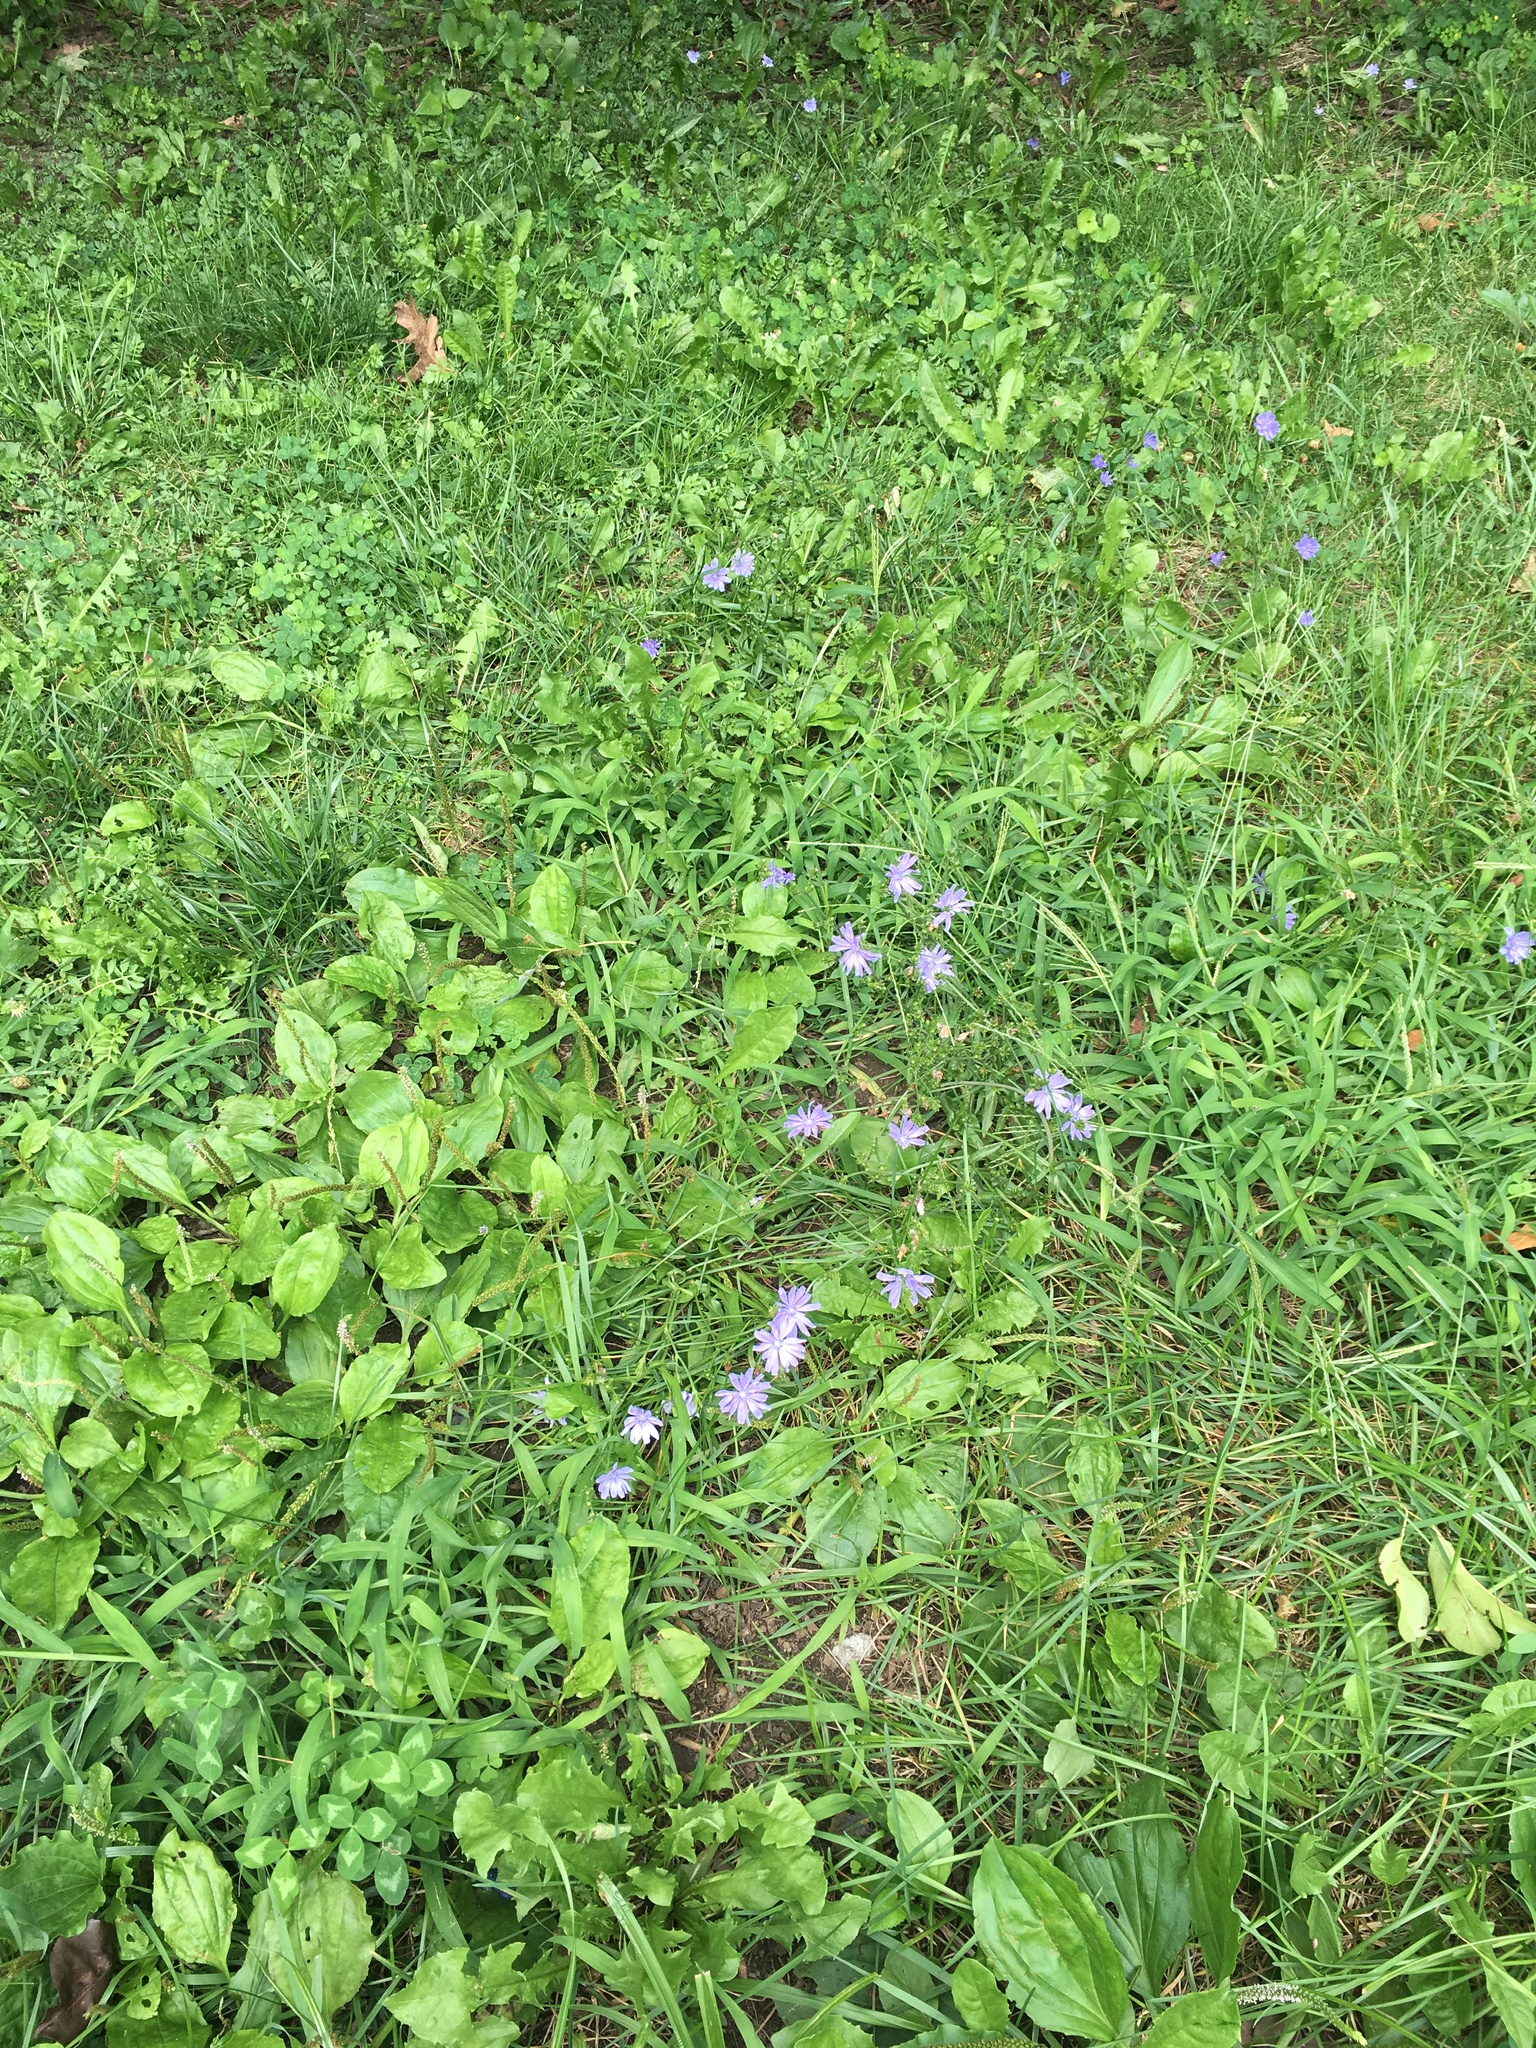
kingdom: Plantae
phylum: Tracheophyta
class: Magnoliopsida
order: Asterales
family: Asteraceae
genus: Cichorium
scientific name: Cichorium intybus
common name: Chicory
